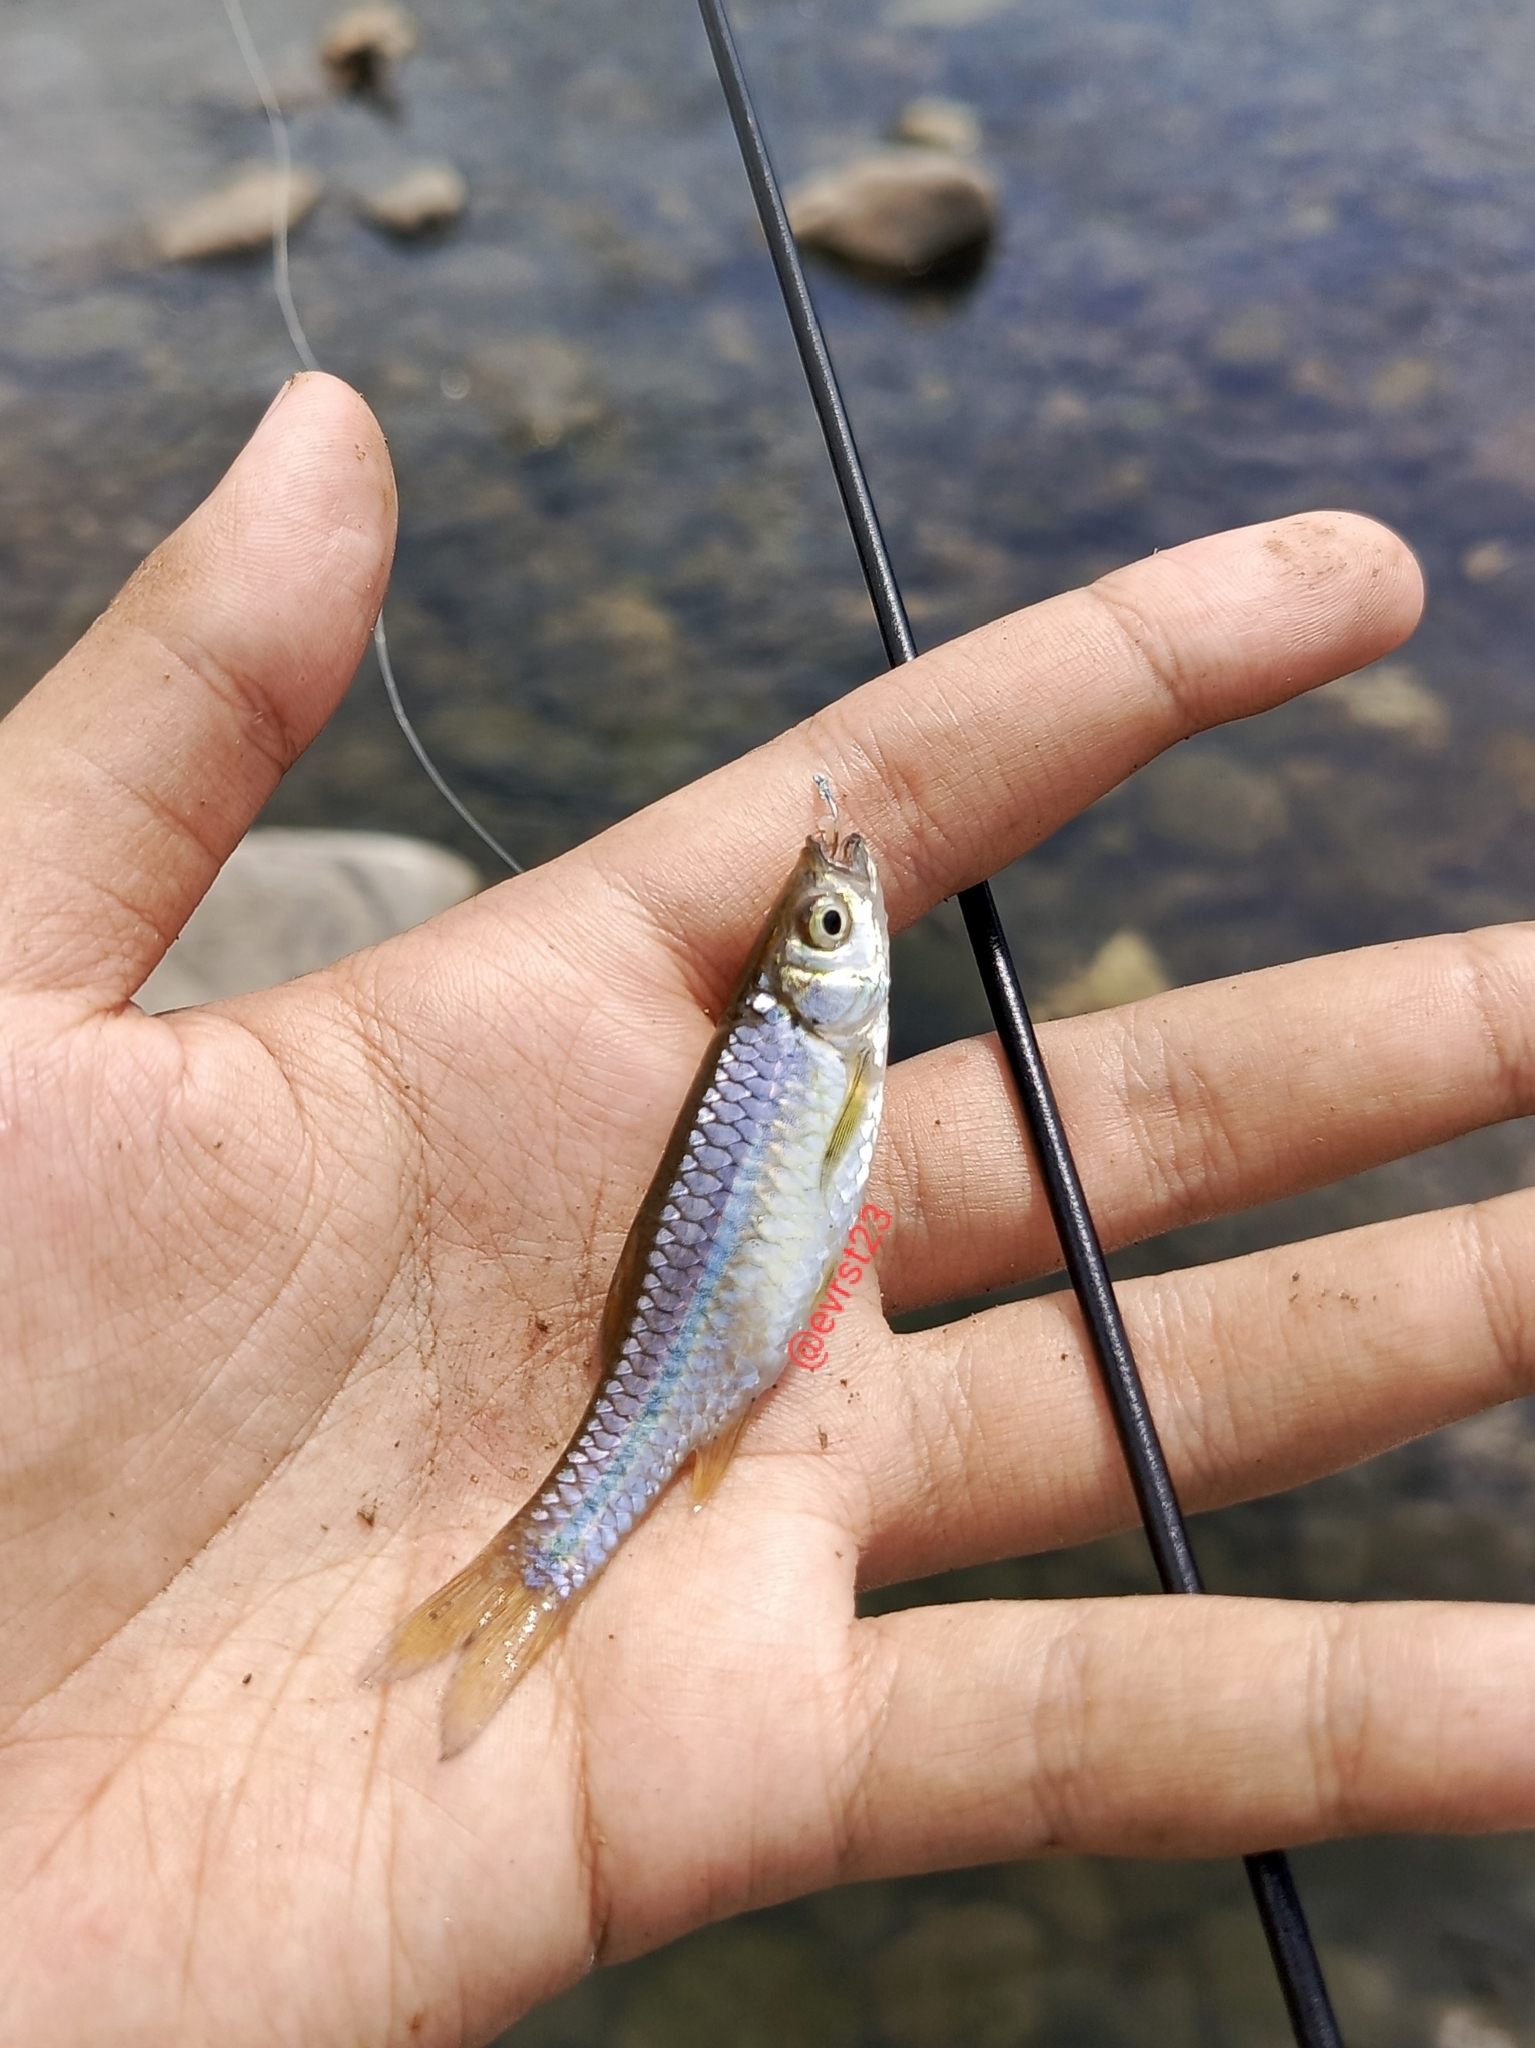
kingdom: Animalia
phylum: Chordata
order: Cypriniformes
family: Cyprinidae
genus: Rasbora
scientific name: Rasbora baliensis
